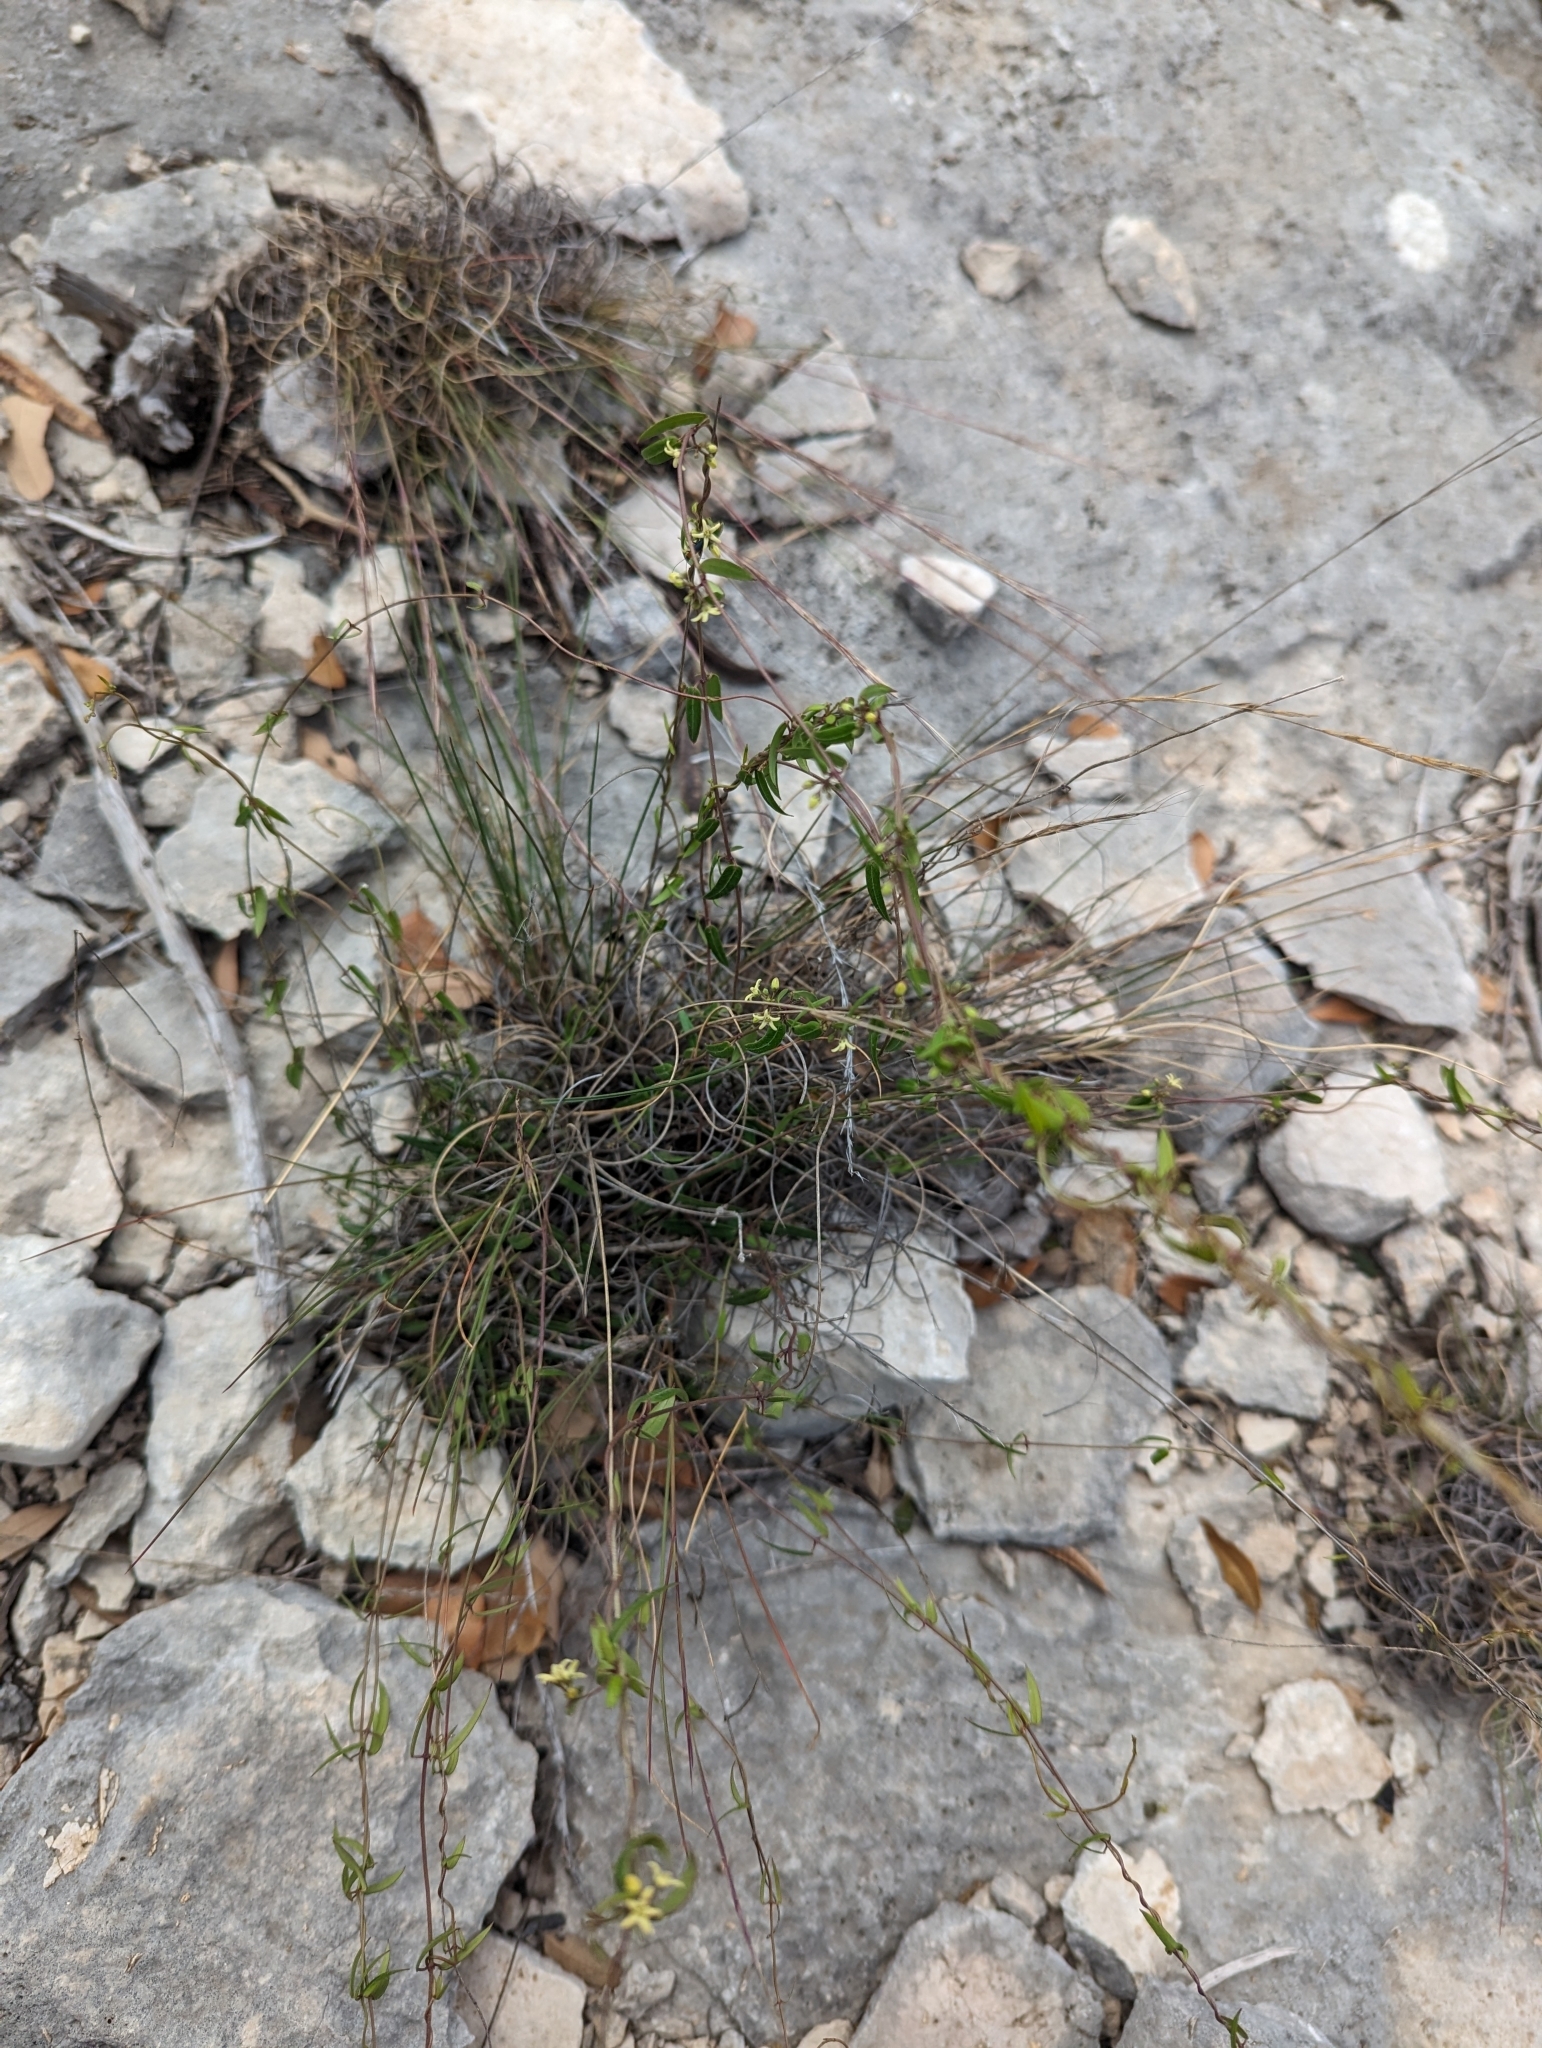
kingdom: Plantae
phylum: Tracheophyta
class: Magnoliopsida
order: Gentianales
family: Apocynaceae
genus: Metastelma
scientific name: Metastelma palmeri
